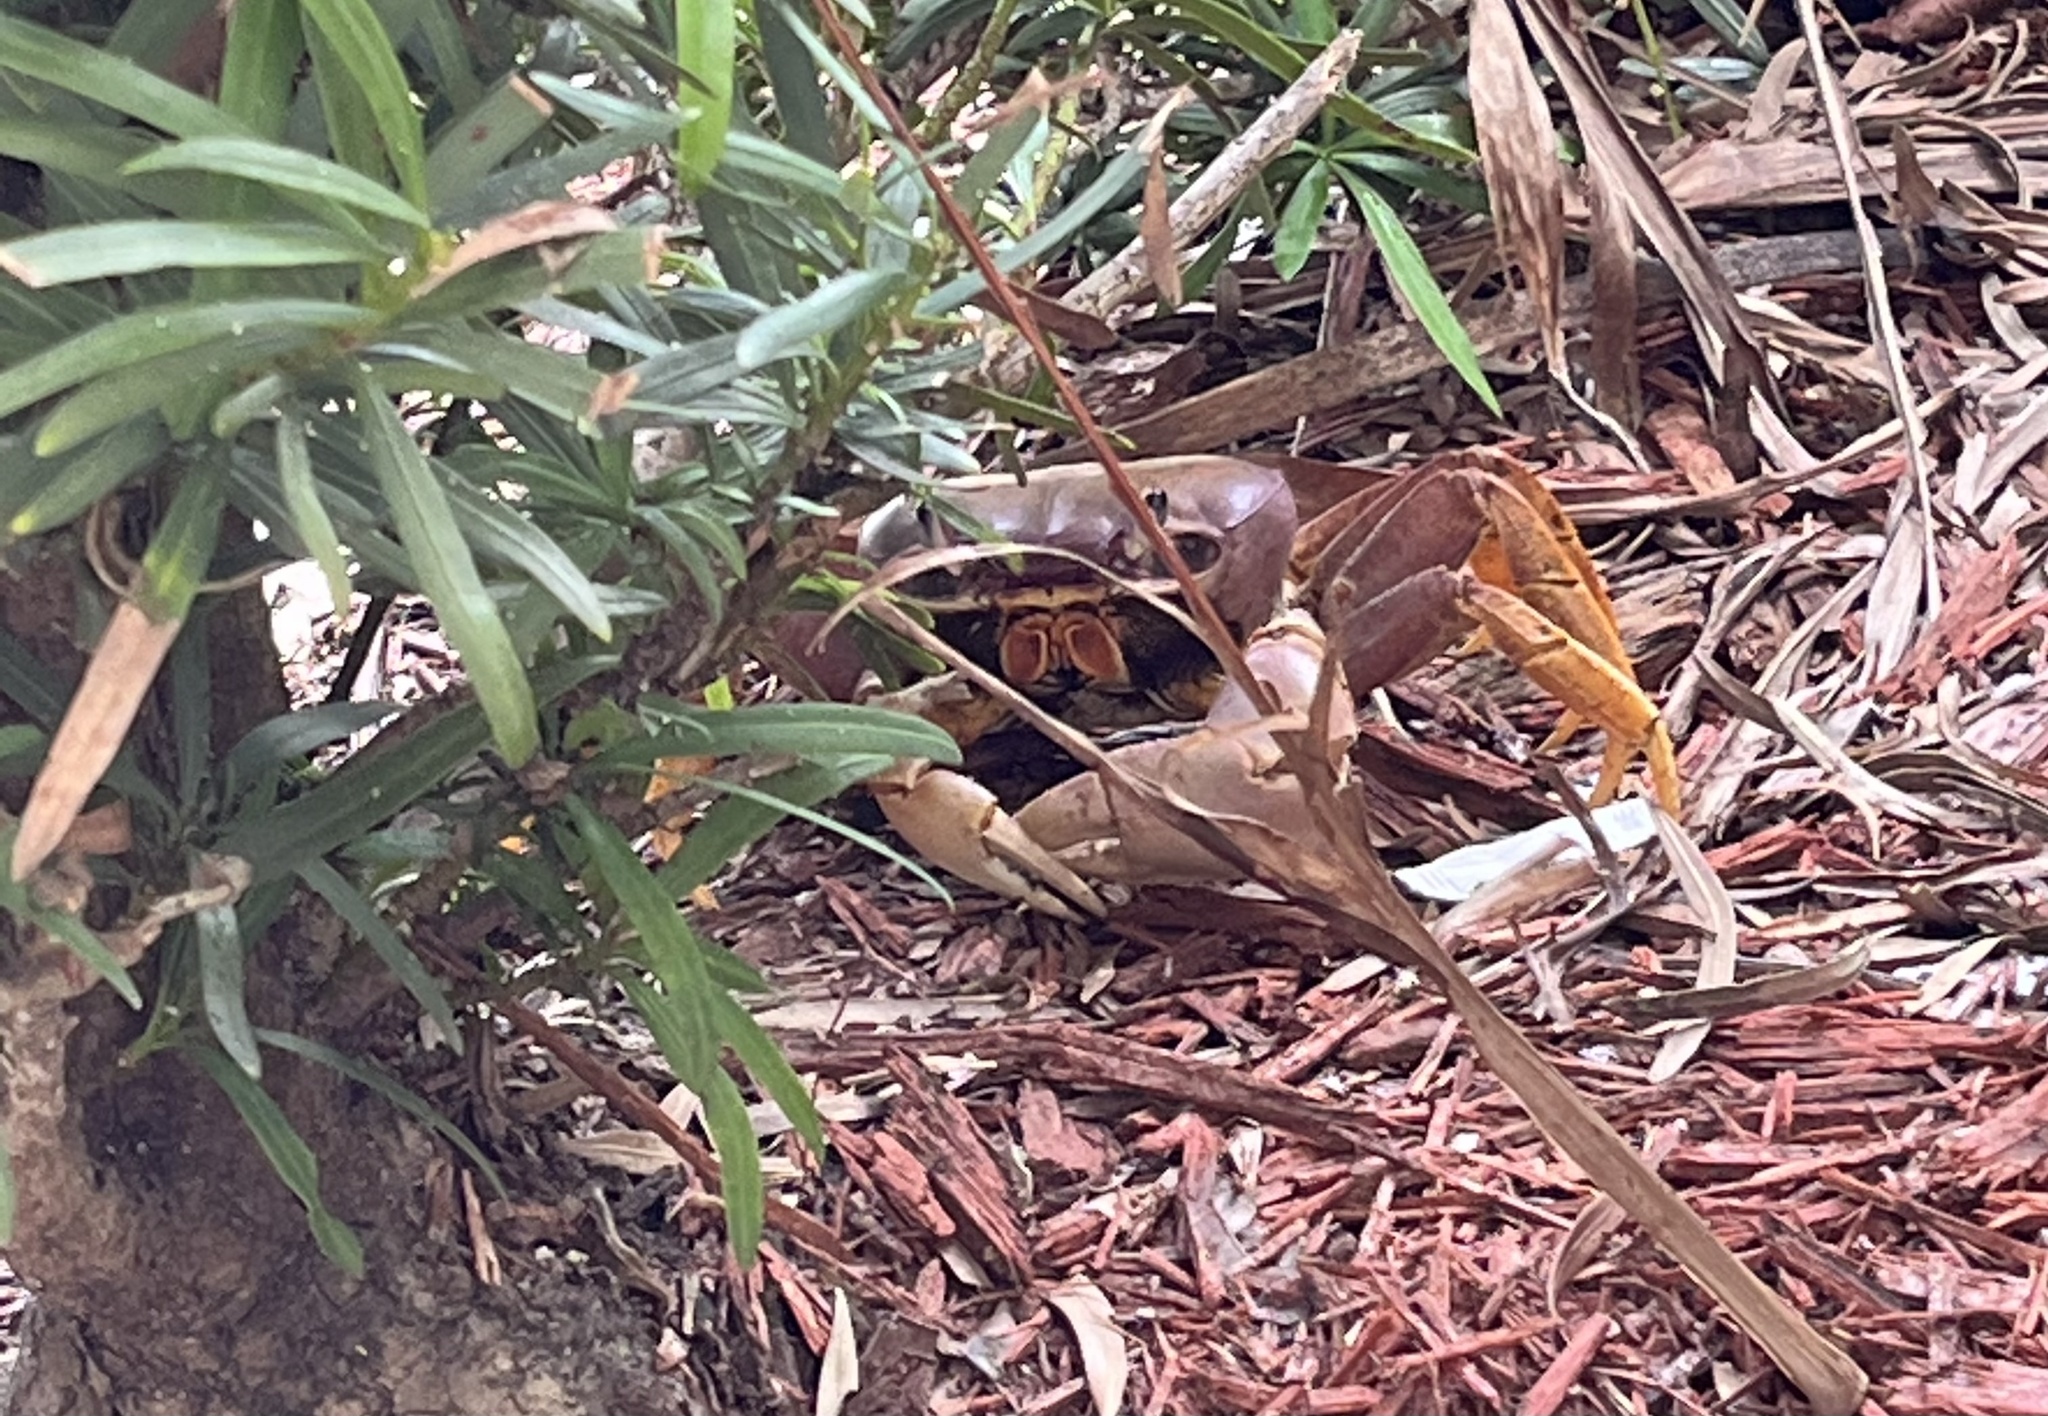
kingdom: Animalia
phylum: Arthropoda
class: Malacostraca
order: Decapoda
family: Gecarcinidae
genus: Cardisoma
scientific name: Cardisoma guanhumi
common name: Great land crab
